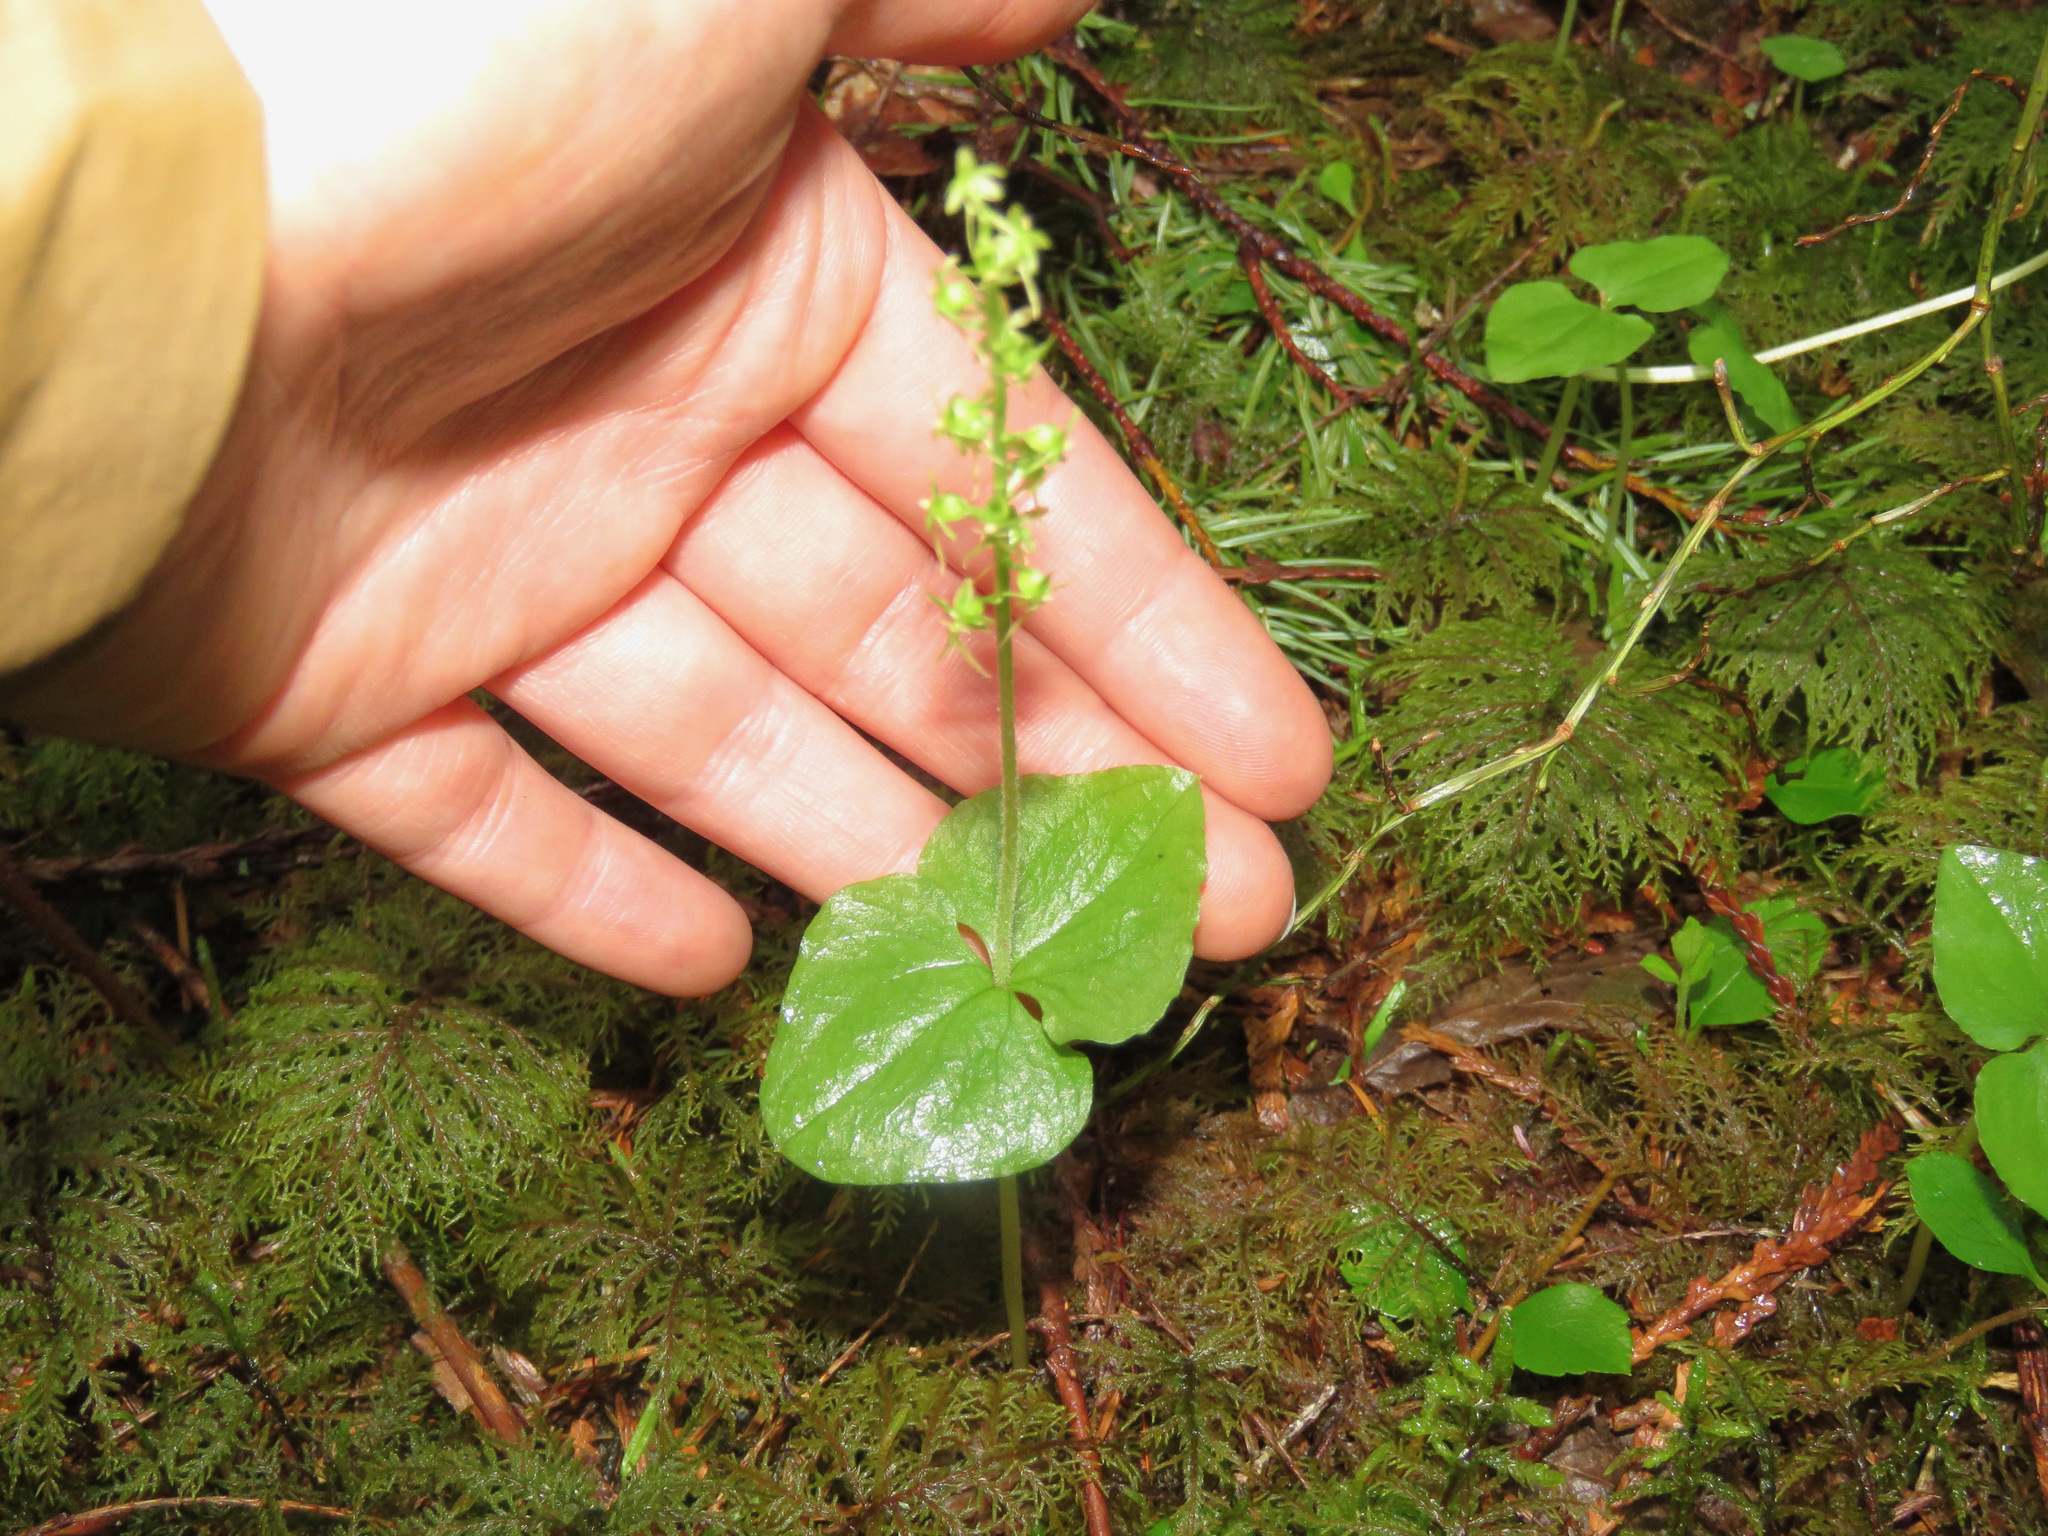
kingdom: Plantae
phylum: Tracheophyta
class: Liliopsida
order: Asparagales
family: Orchidaceae
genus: Neottia
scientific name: Neottia cordata
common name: Lesser twayblade
